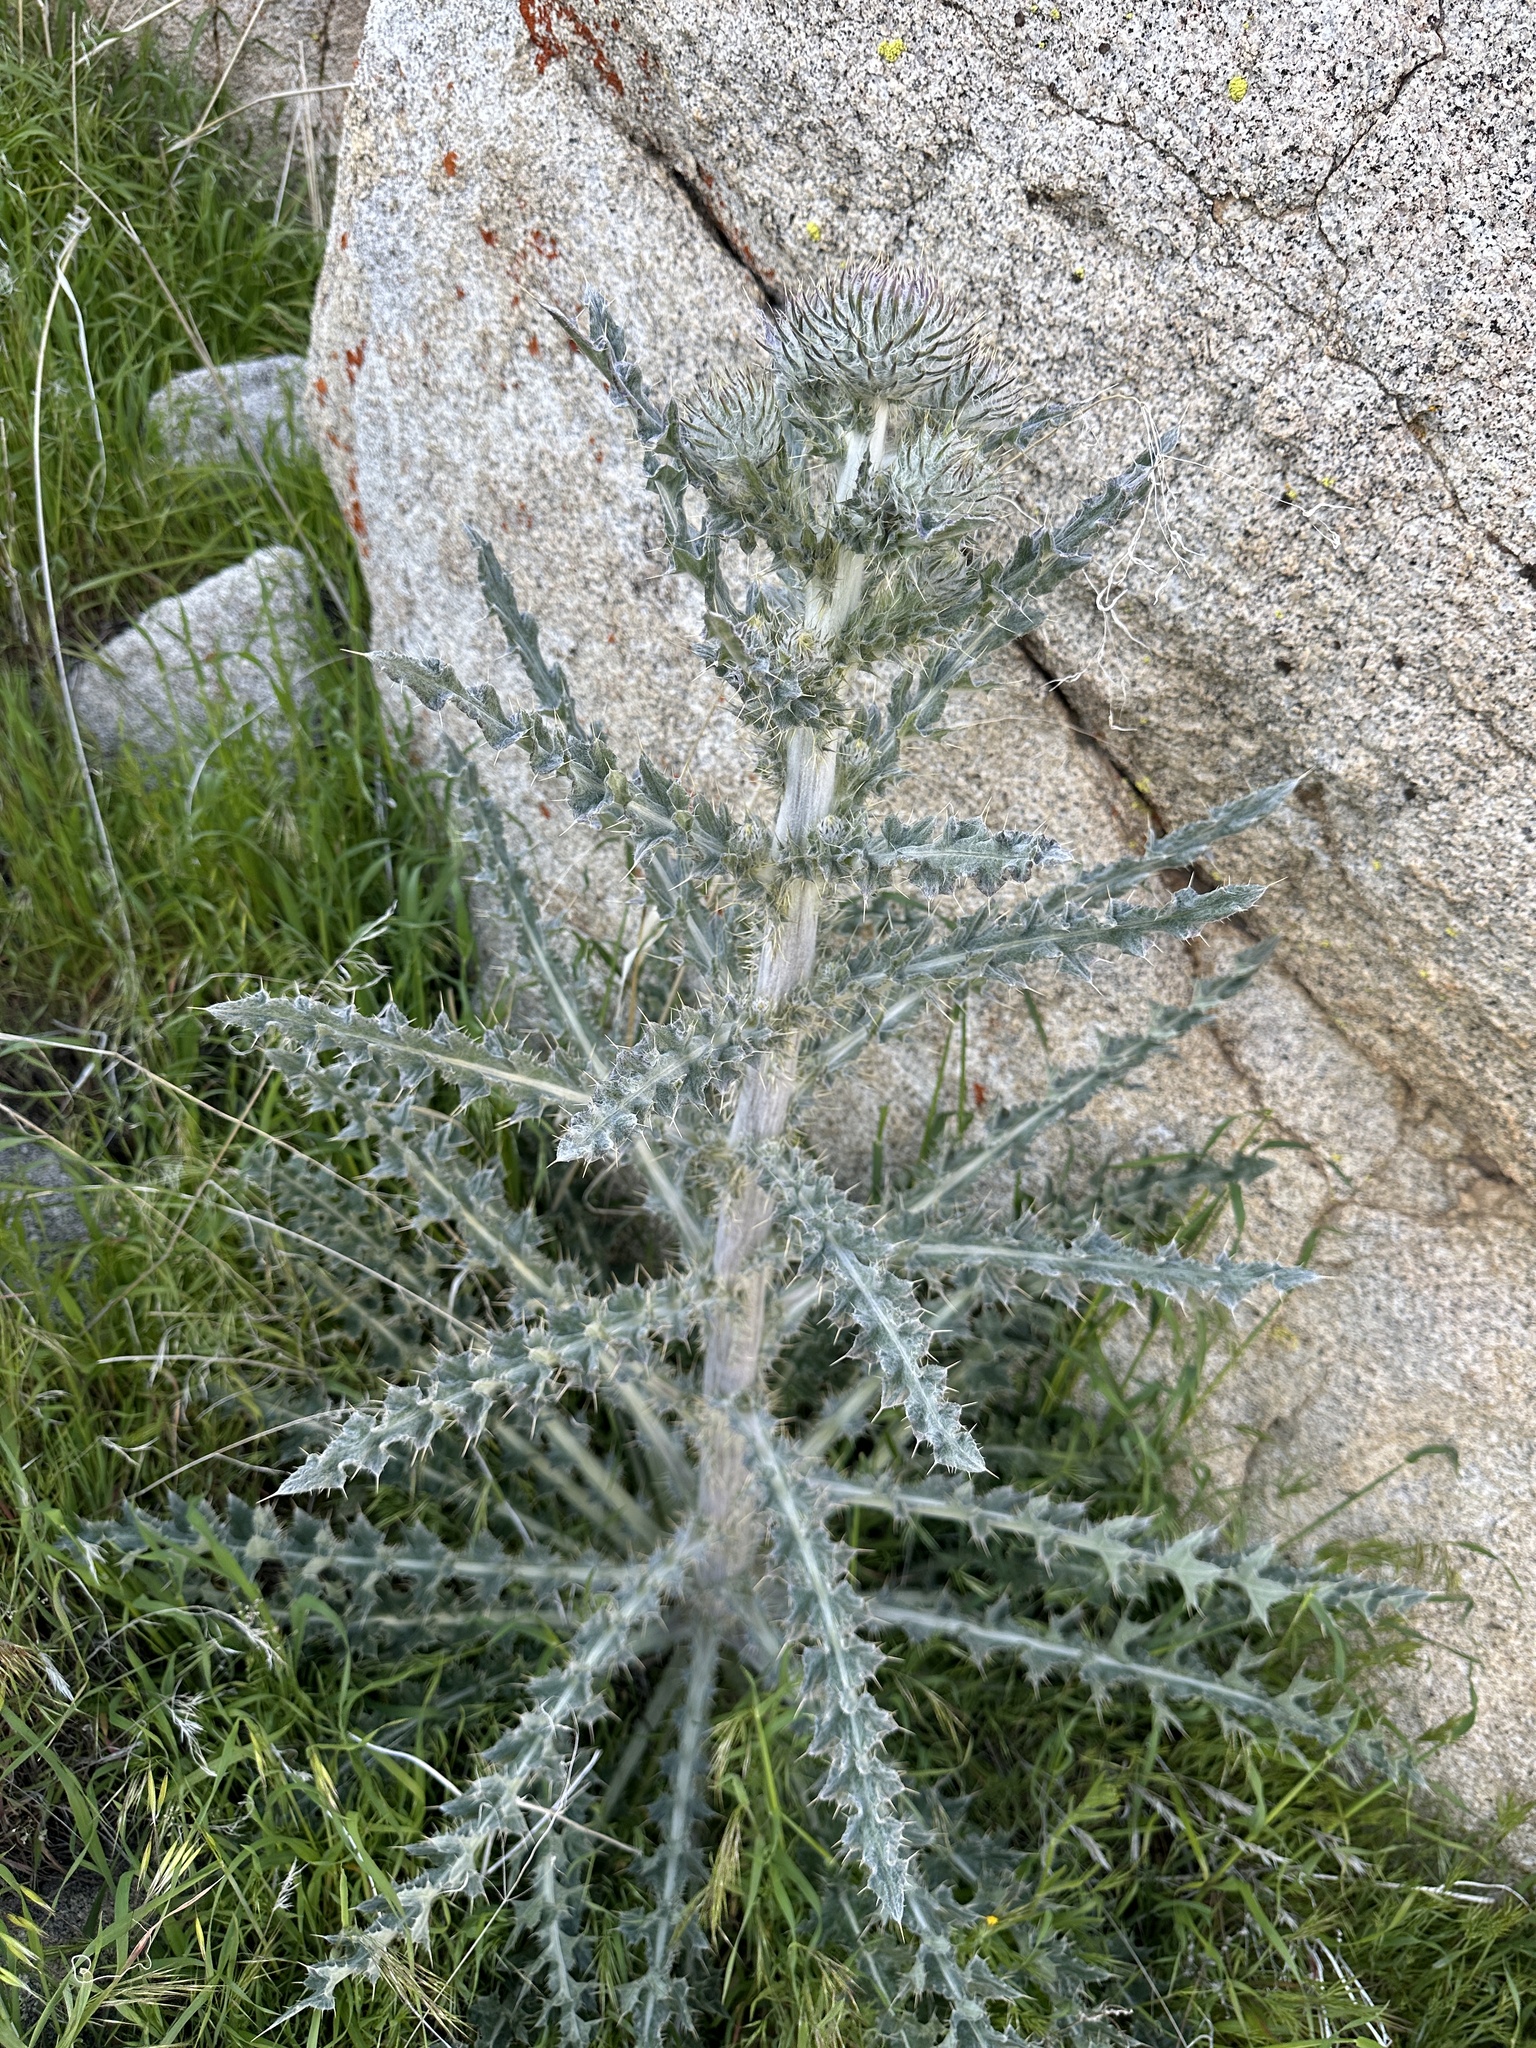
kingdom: Plantae
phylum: Tracheophyta
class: Magnoliopsida
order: Asterales
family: Asteraceae
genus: Cirsium
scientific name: Cirsium occidentale
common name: Western thistle
